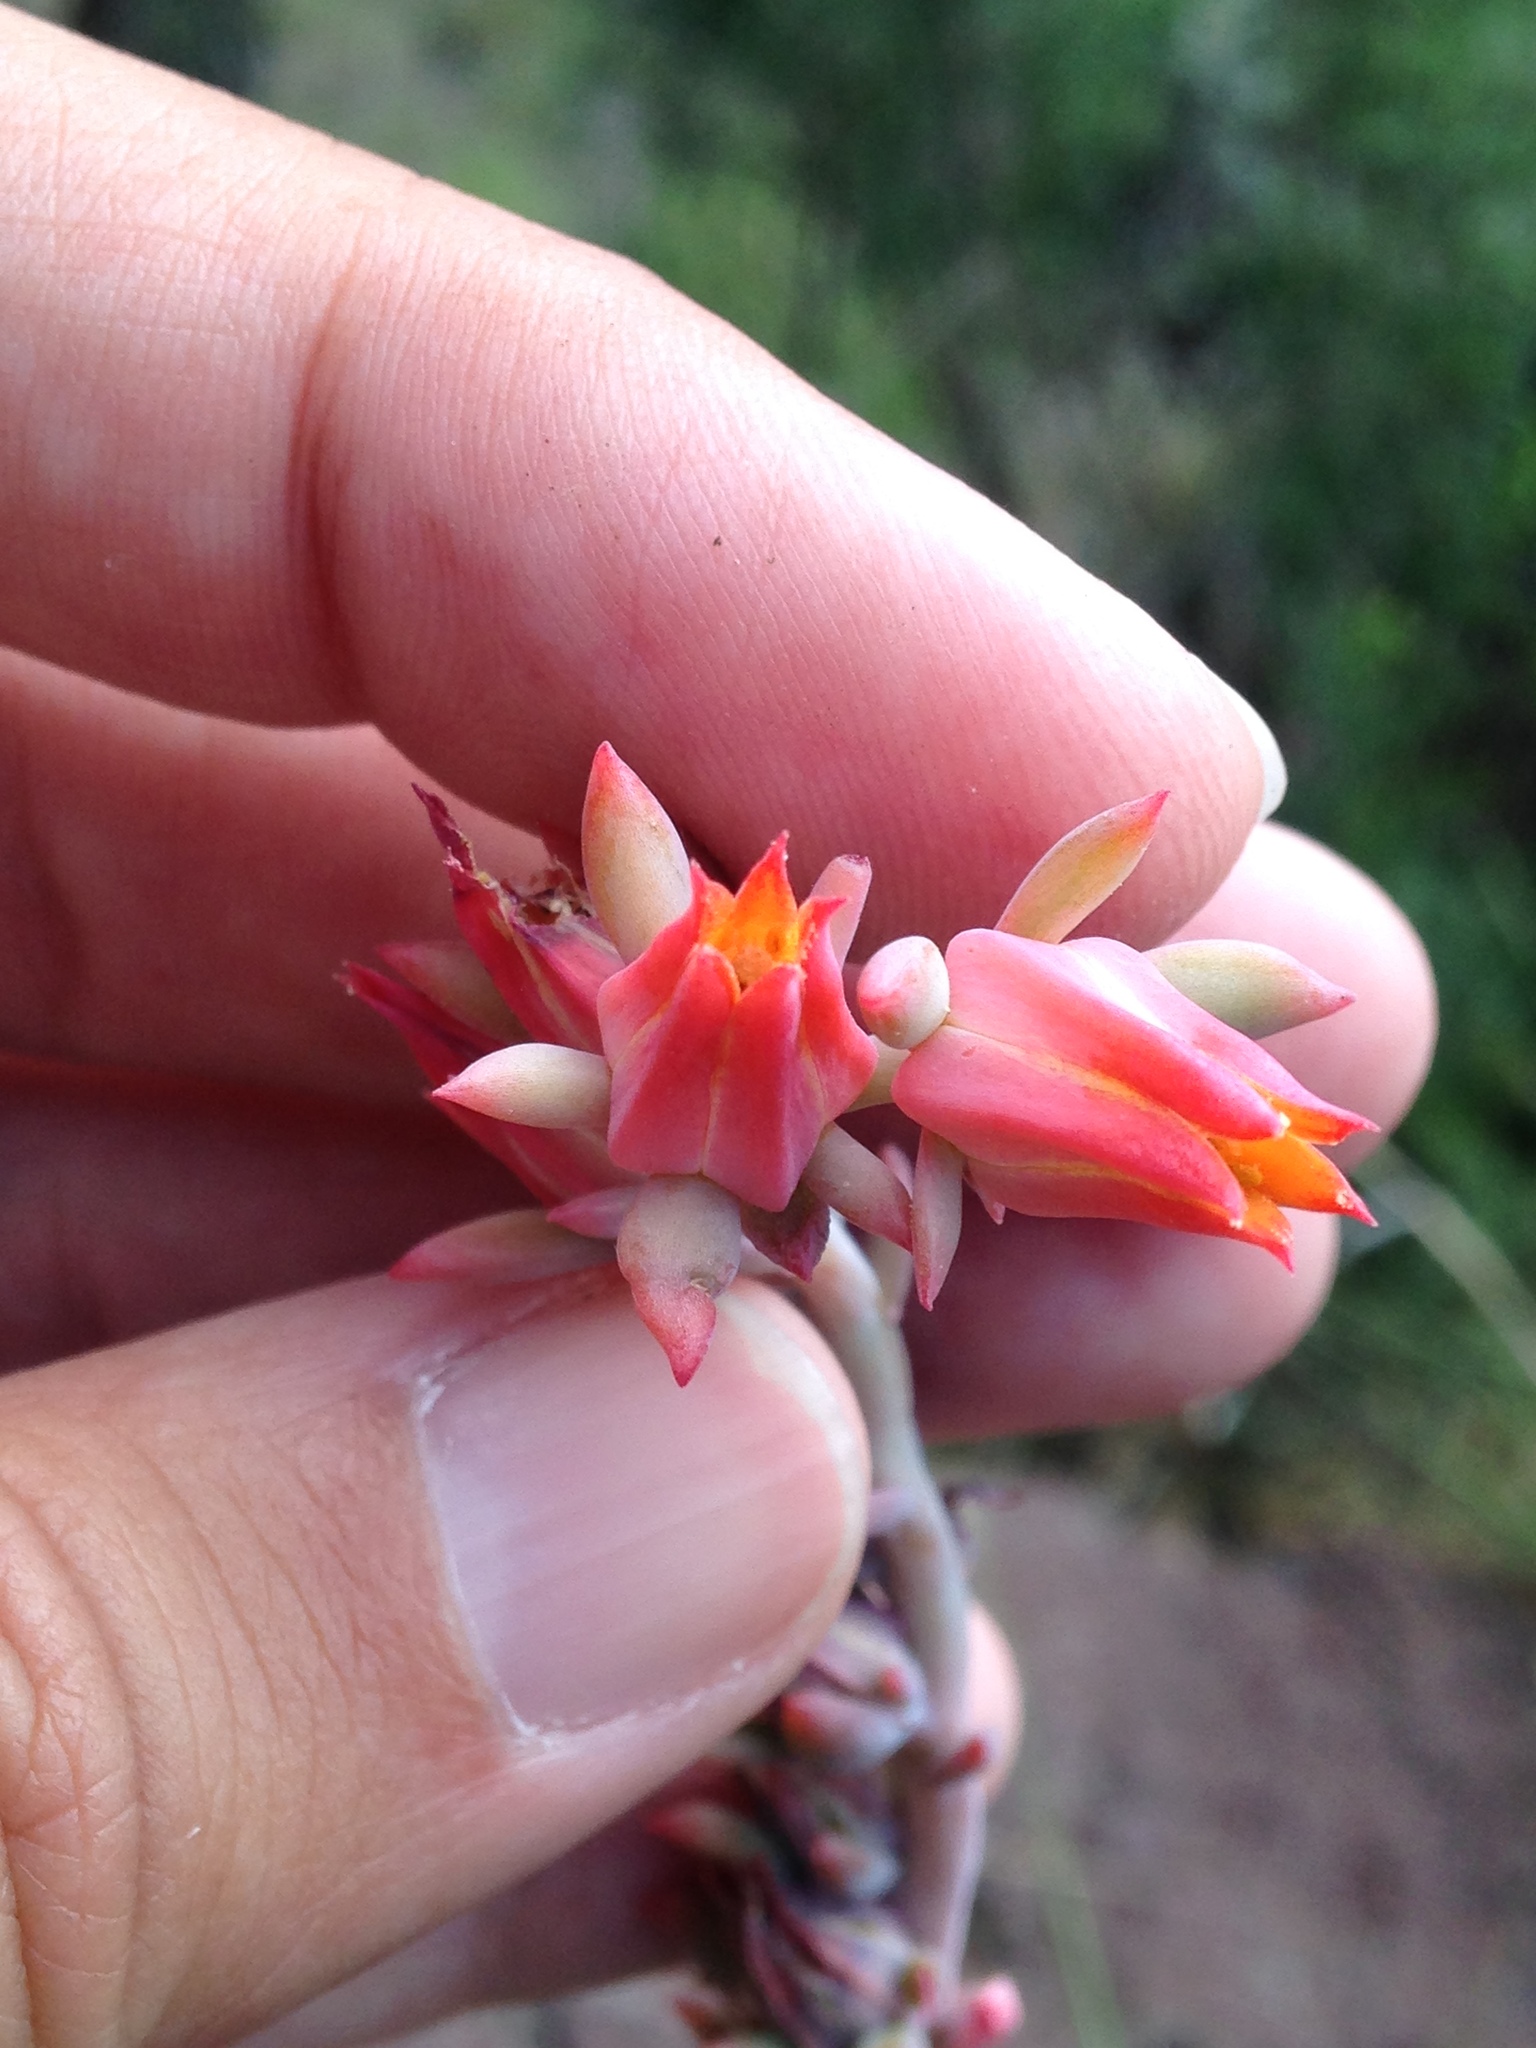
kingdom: Plantae
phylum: Tracheophyta
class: Magnoliopsida
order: Saxifragales
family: Crassulaceae
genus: Echeveria
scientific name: Echeveria strictiflora
